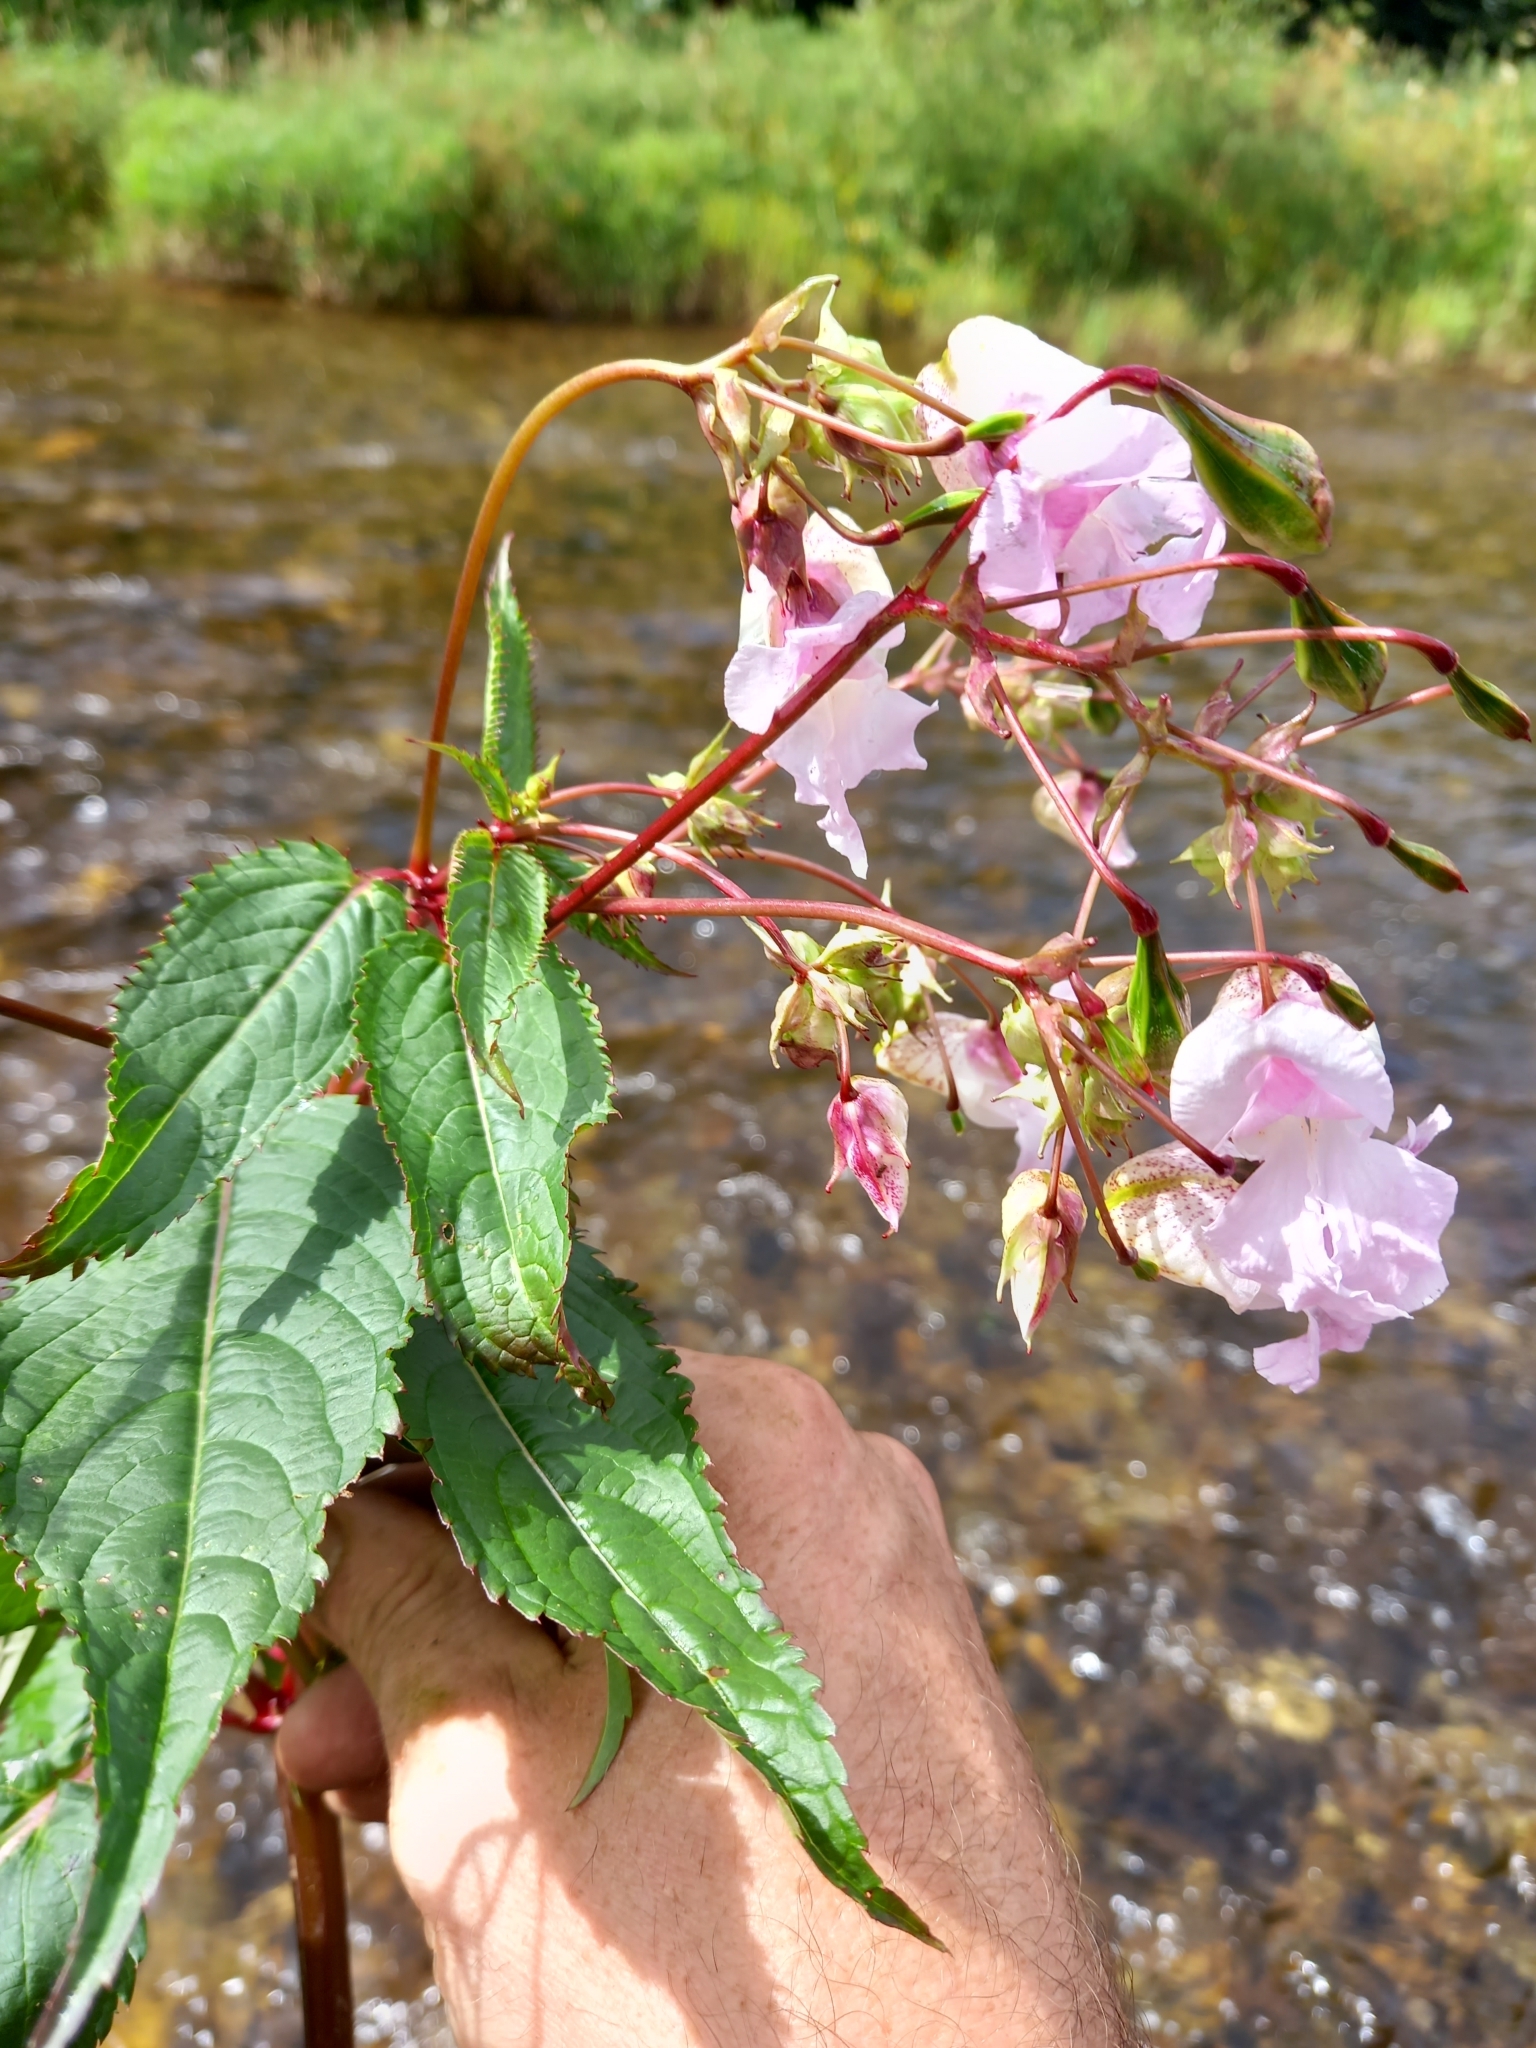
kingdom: Plantae
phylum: Tracheophyta
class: Magnoliopsida
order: Ericales
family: Balsaminaceae
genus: Impatiens
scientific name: Impatiens glandulifera
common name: Himalayan balsam
